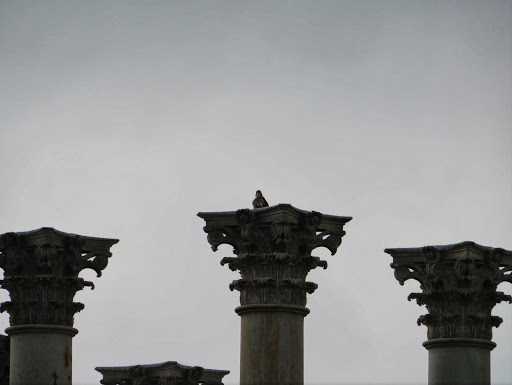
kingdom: Animalia
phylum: Chordata
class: Aves
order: Accipitriformes
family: Accipitridae
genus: Buteo
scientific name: Buteo jamaicensis
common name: Red-tailed hawk
